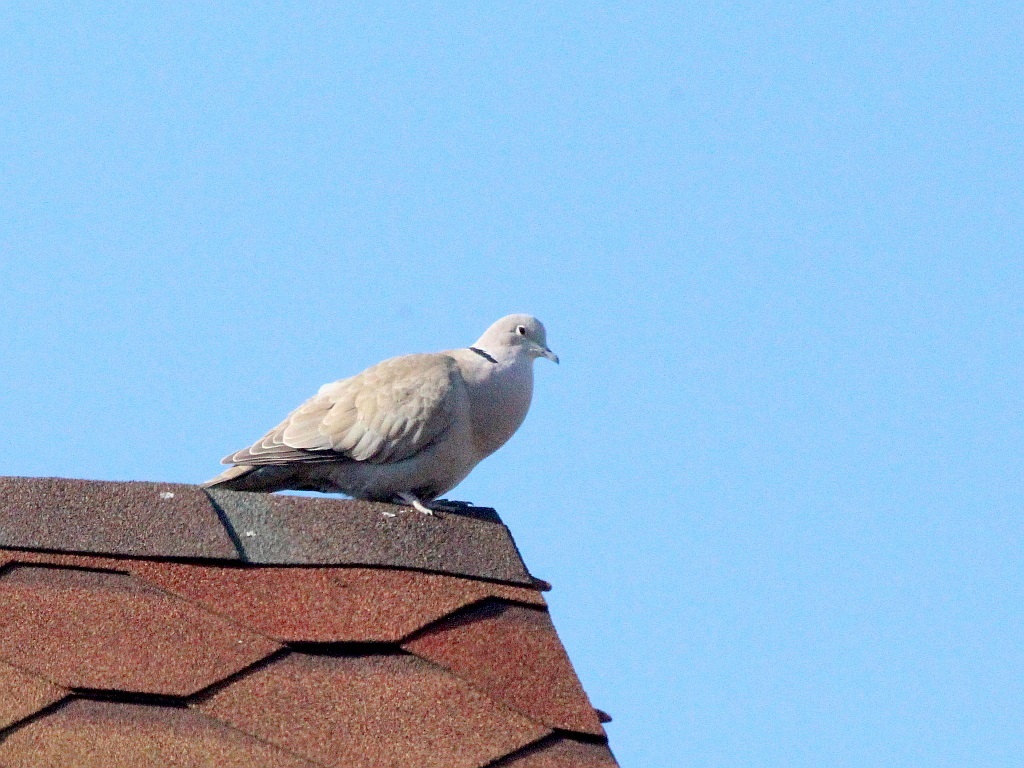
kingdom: Animalia
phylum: Chordata
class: Aves
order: Columbiformes
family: Columbidae
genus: Streptopelia
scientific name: Streptopelia decaocto
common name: Eurasian collared dove
